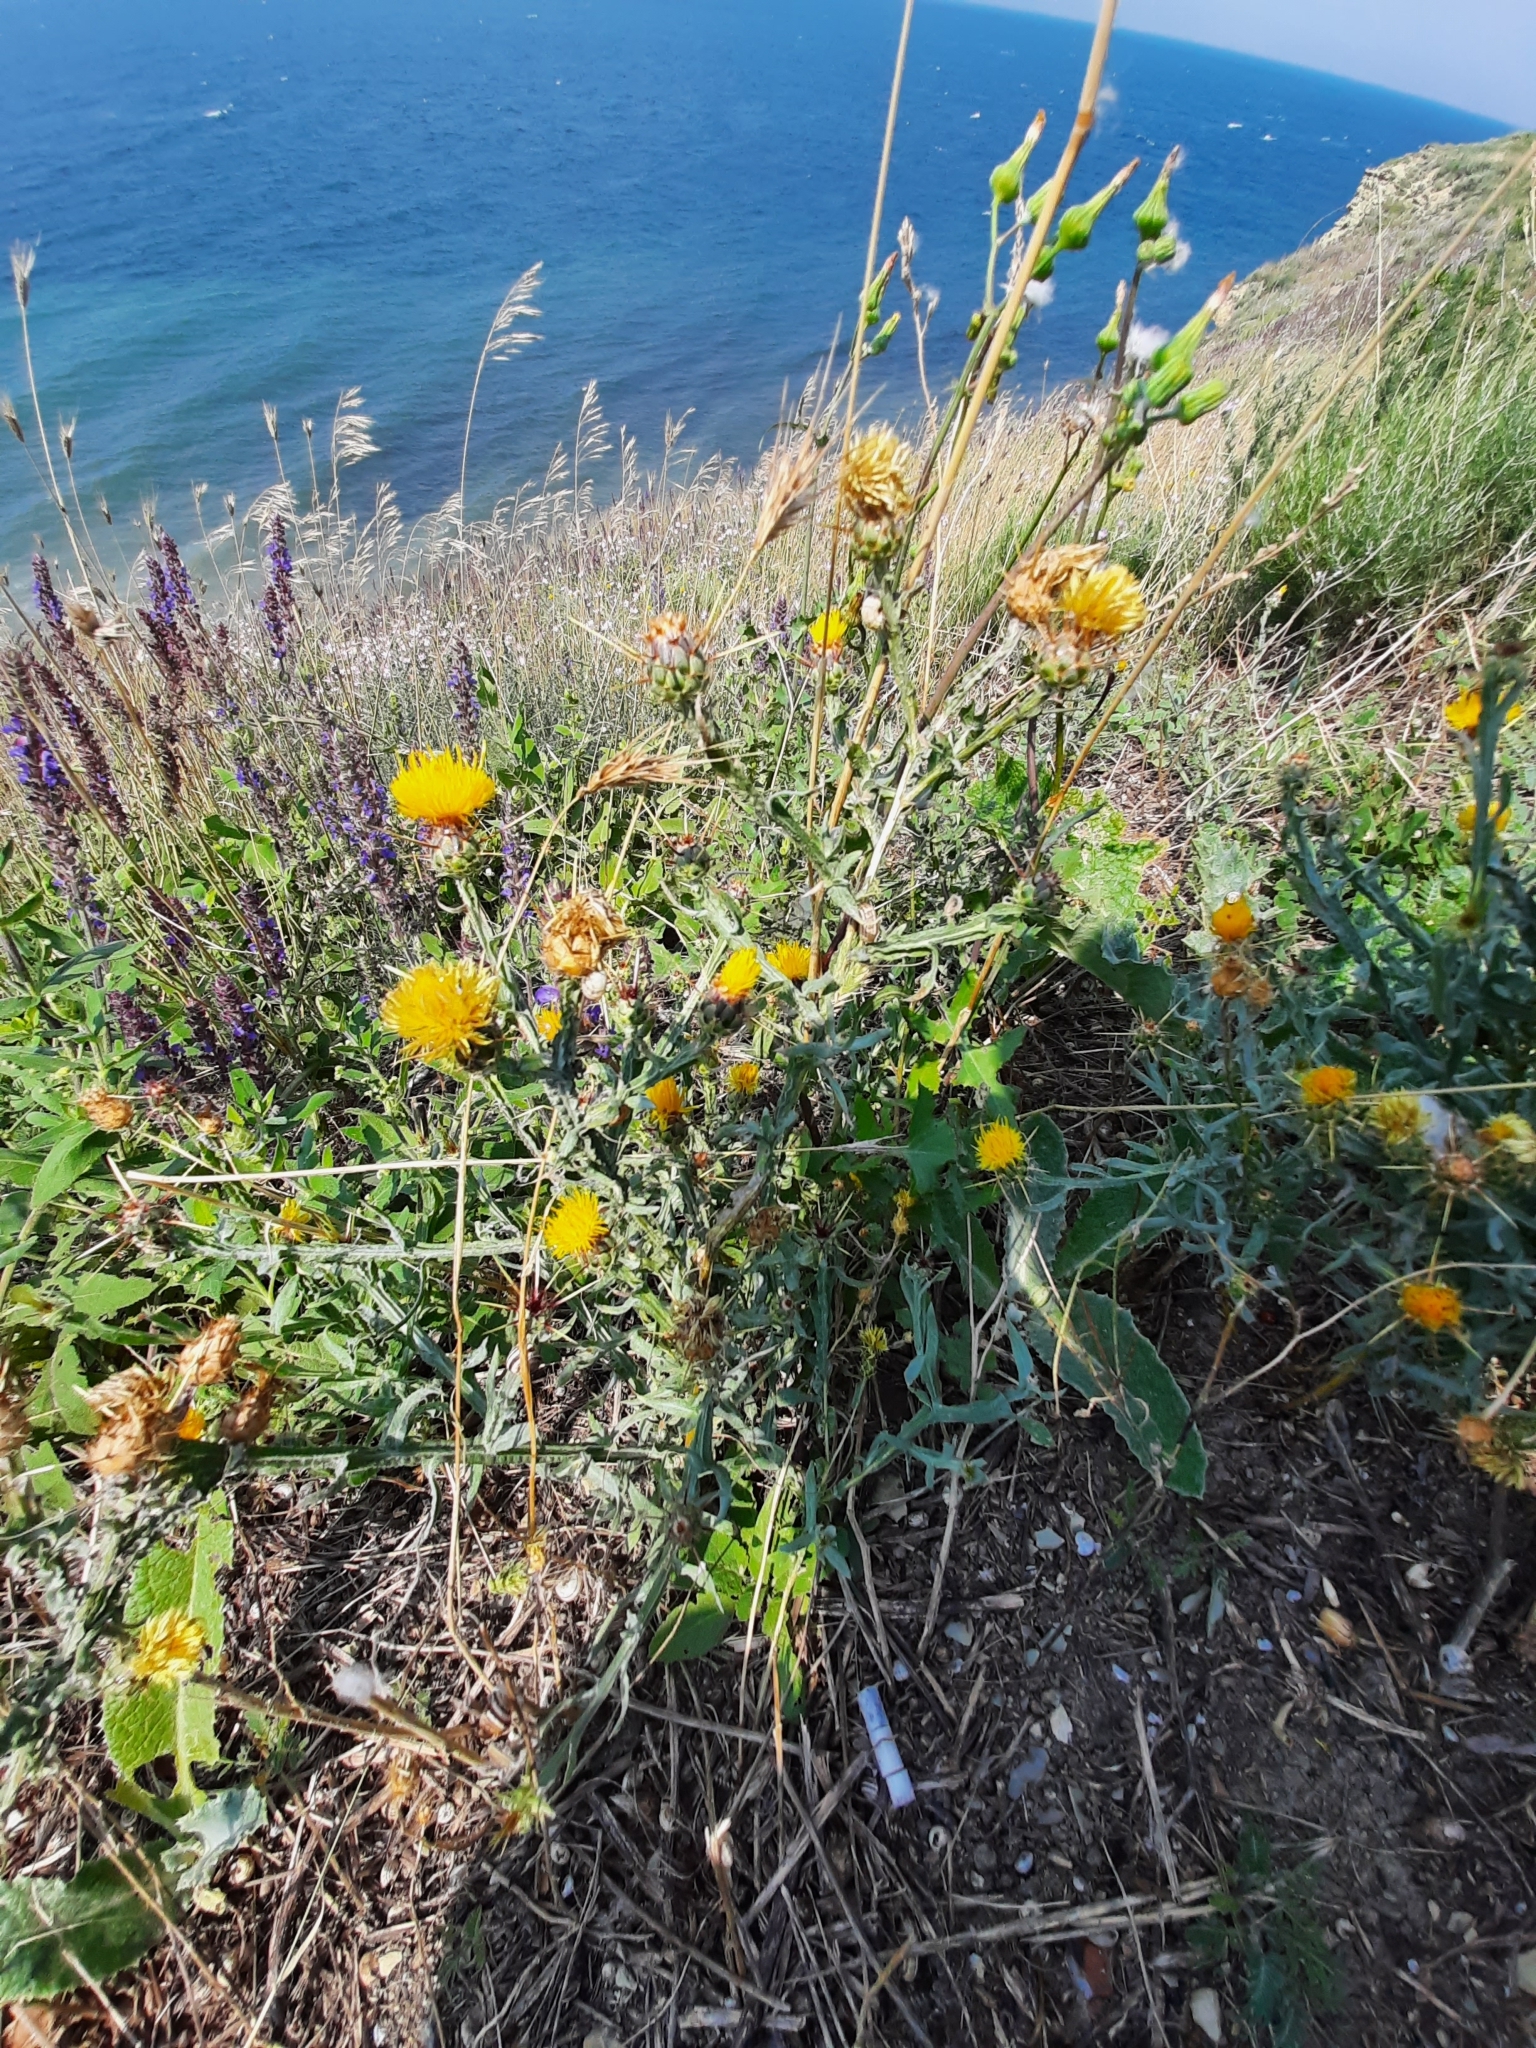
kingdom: Plantae
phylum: Tracheophyta
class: Magnoliopsida
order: Asterales
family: Asteraceae
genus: Centaurea
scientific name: Centaurea solstitialis
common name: Yellow star-thistle
